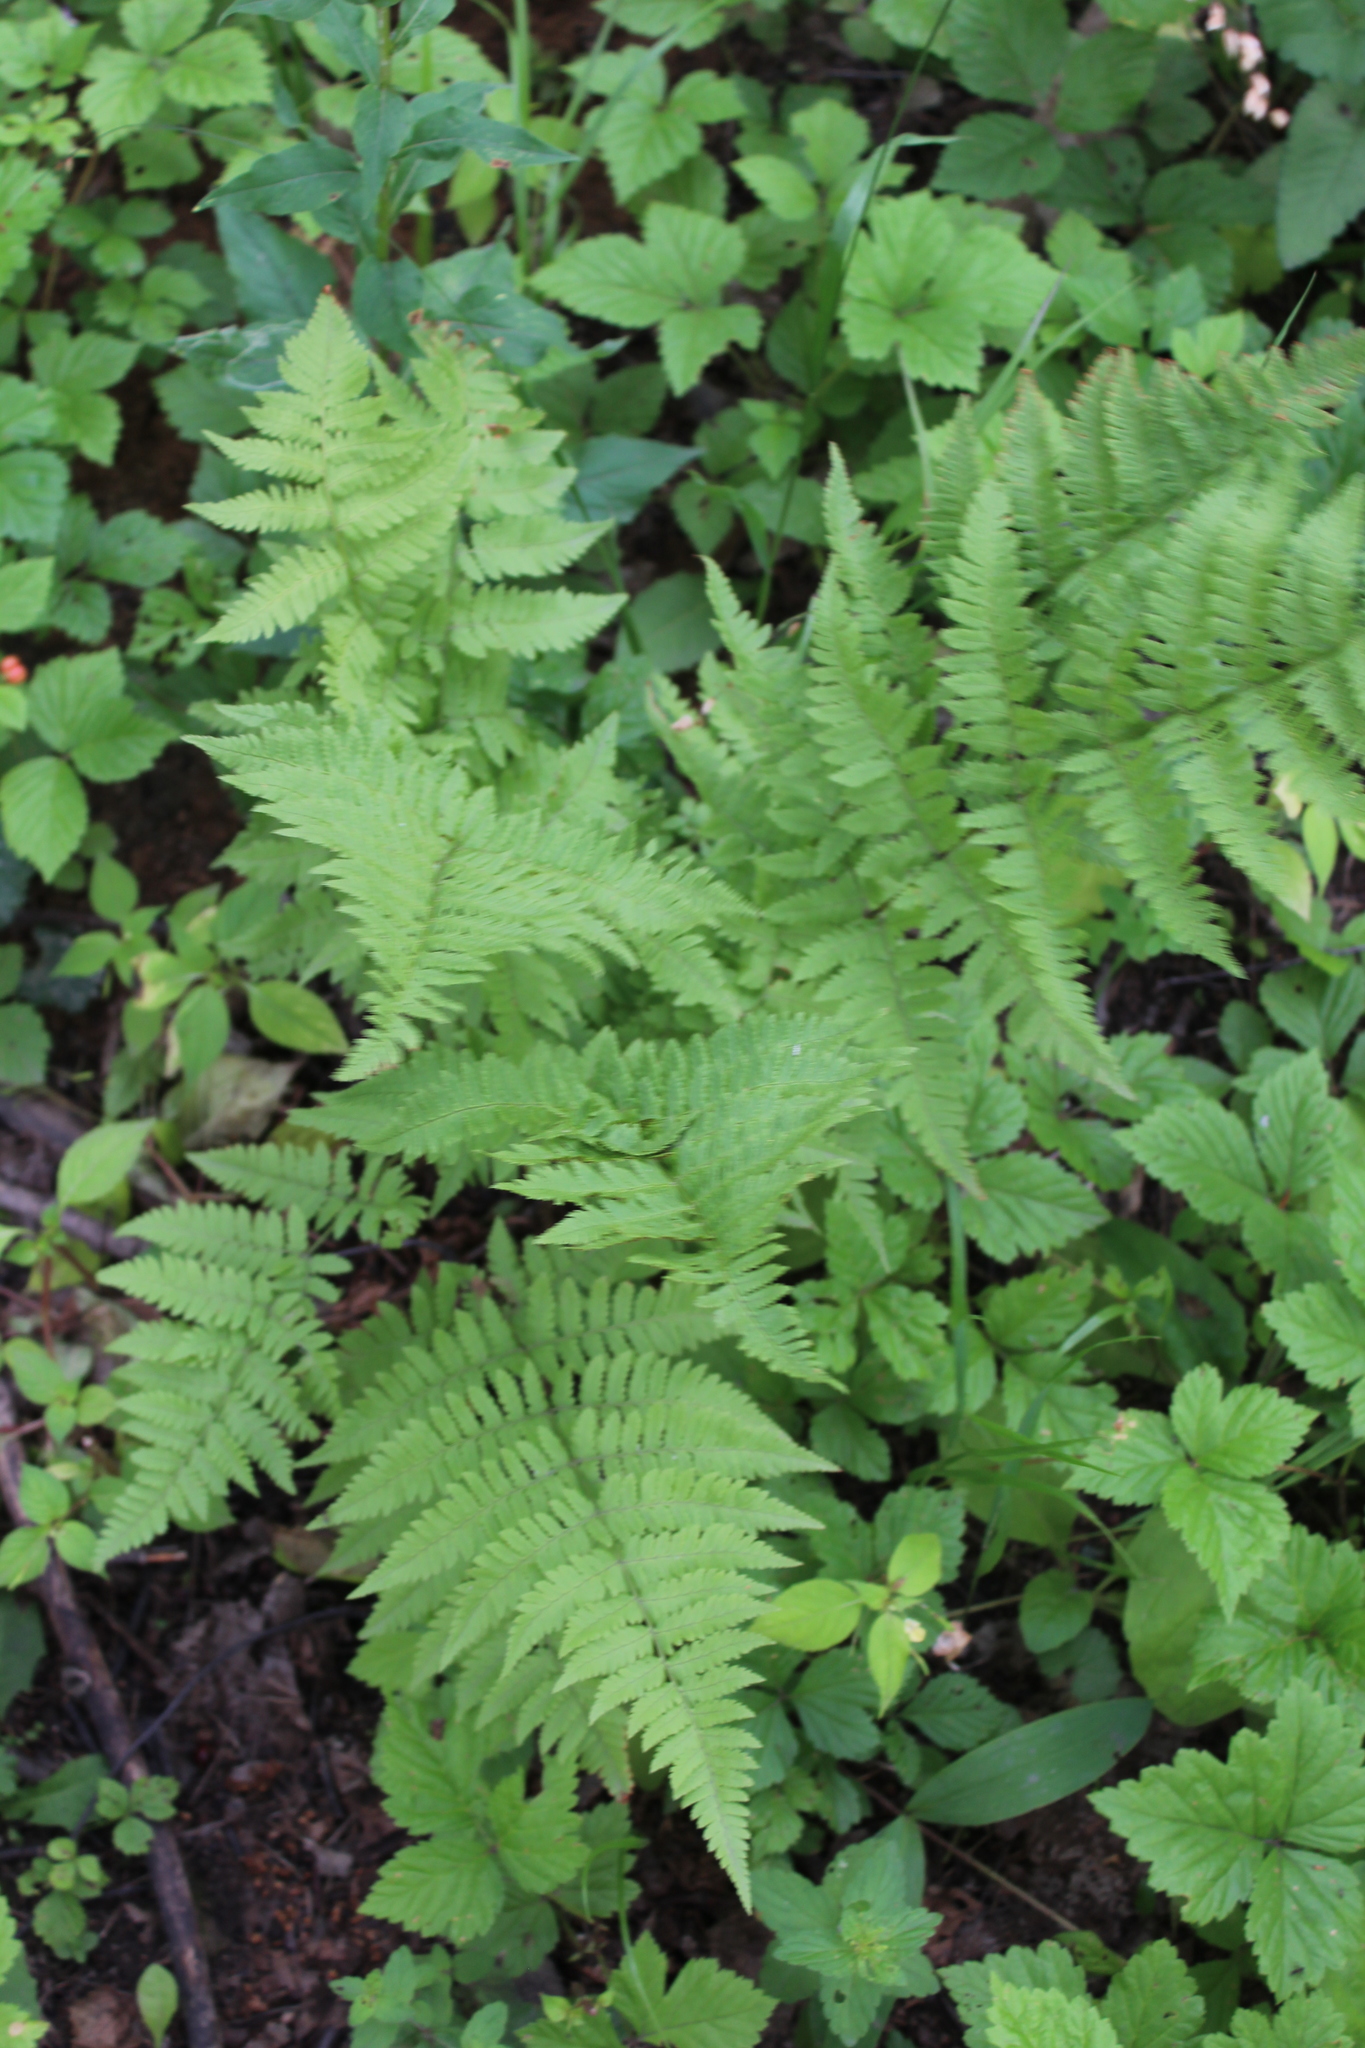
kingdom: Plantae
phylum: Tracheophyta
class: Polypodiopsida
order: Polypodiales
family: Dryopteridaceae
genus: Dryopteris
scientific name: Dryopteris carthusiana
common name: Narrow buckler-fern
